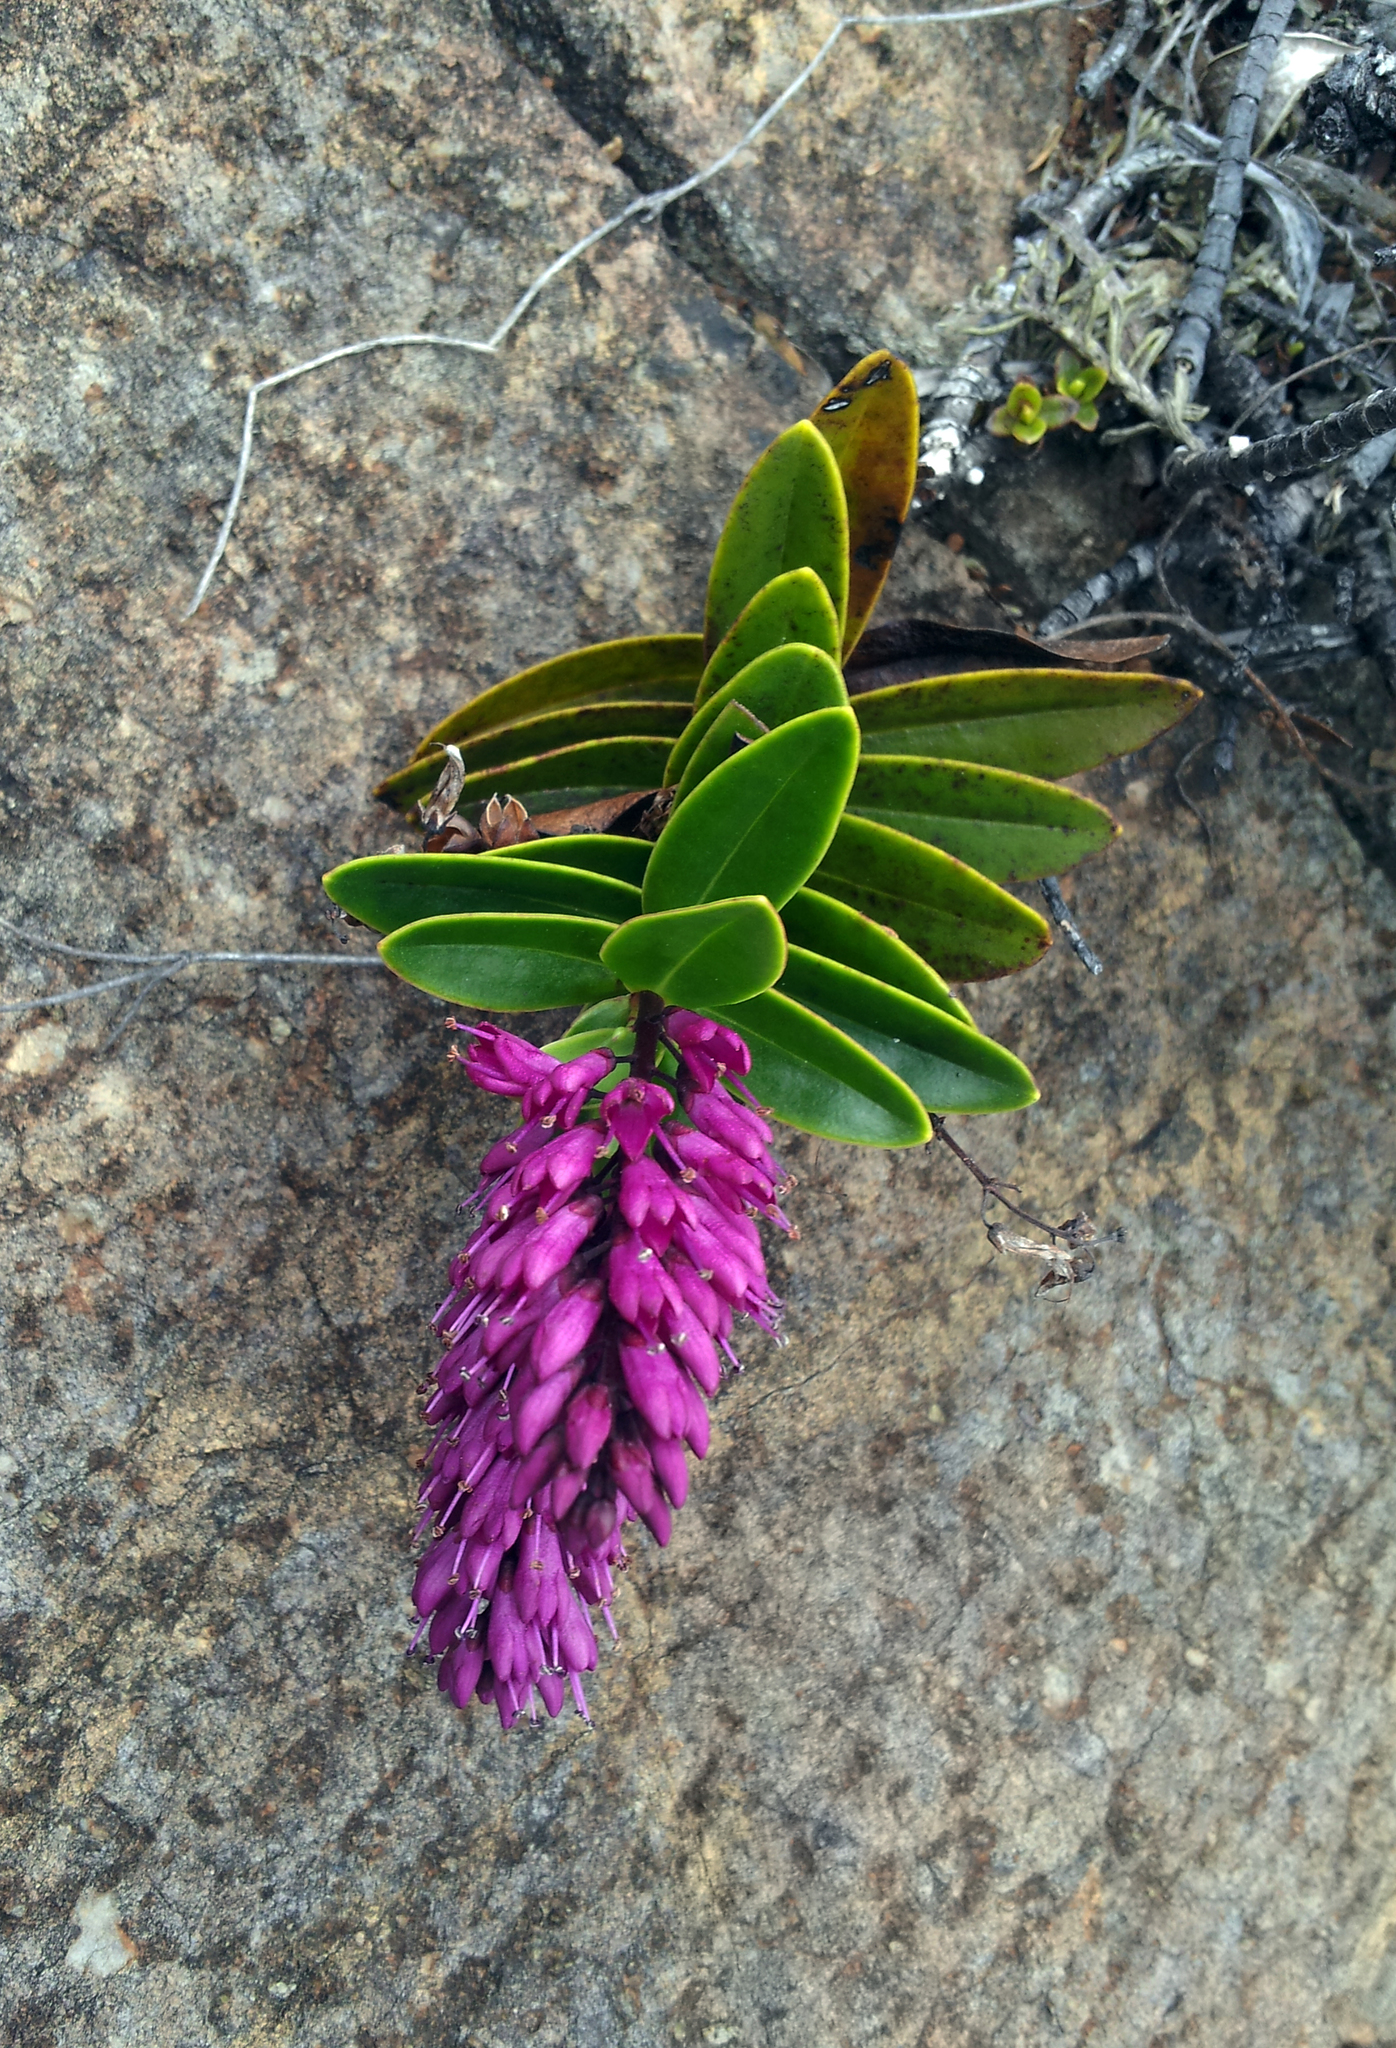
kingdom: Plantae
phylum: Tracheophyta
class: Magnoliopsida
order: Lamiales
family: Plantaginaceae
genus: Veronica
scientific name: Veronica punicea
